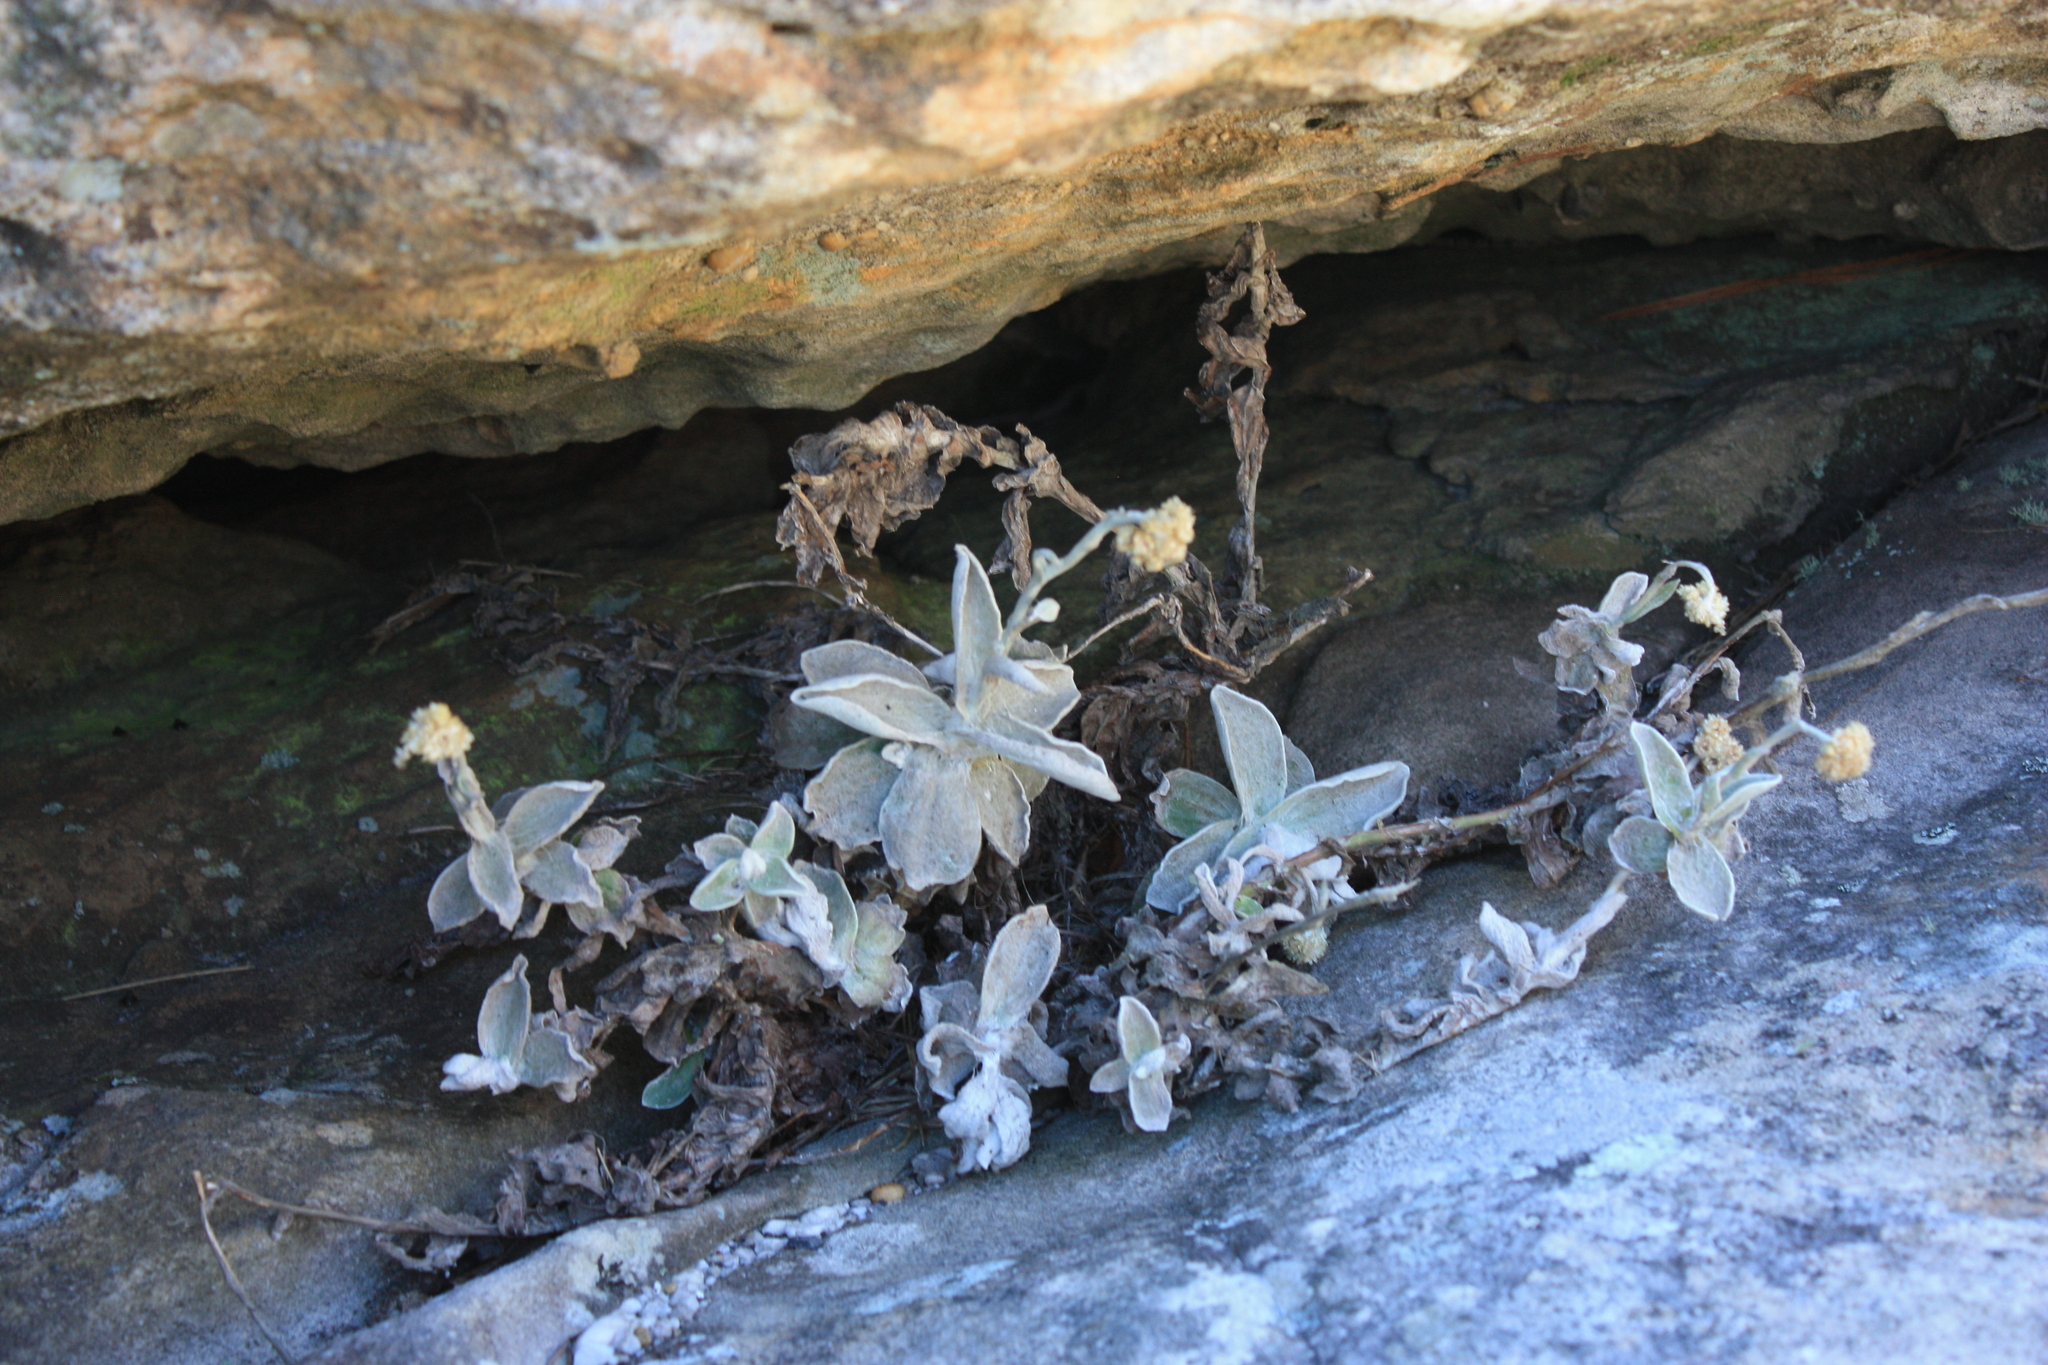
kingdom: Plantae
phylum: Tracheophyta
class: Magnoliopsida
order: Asterales
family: Asteraceae
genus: Helichrysum
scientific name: Helichrysum grandiflorum
